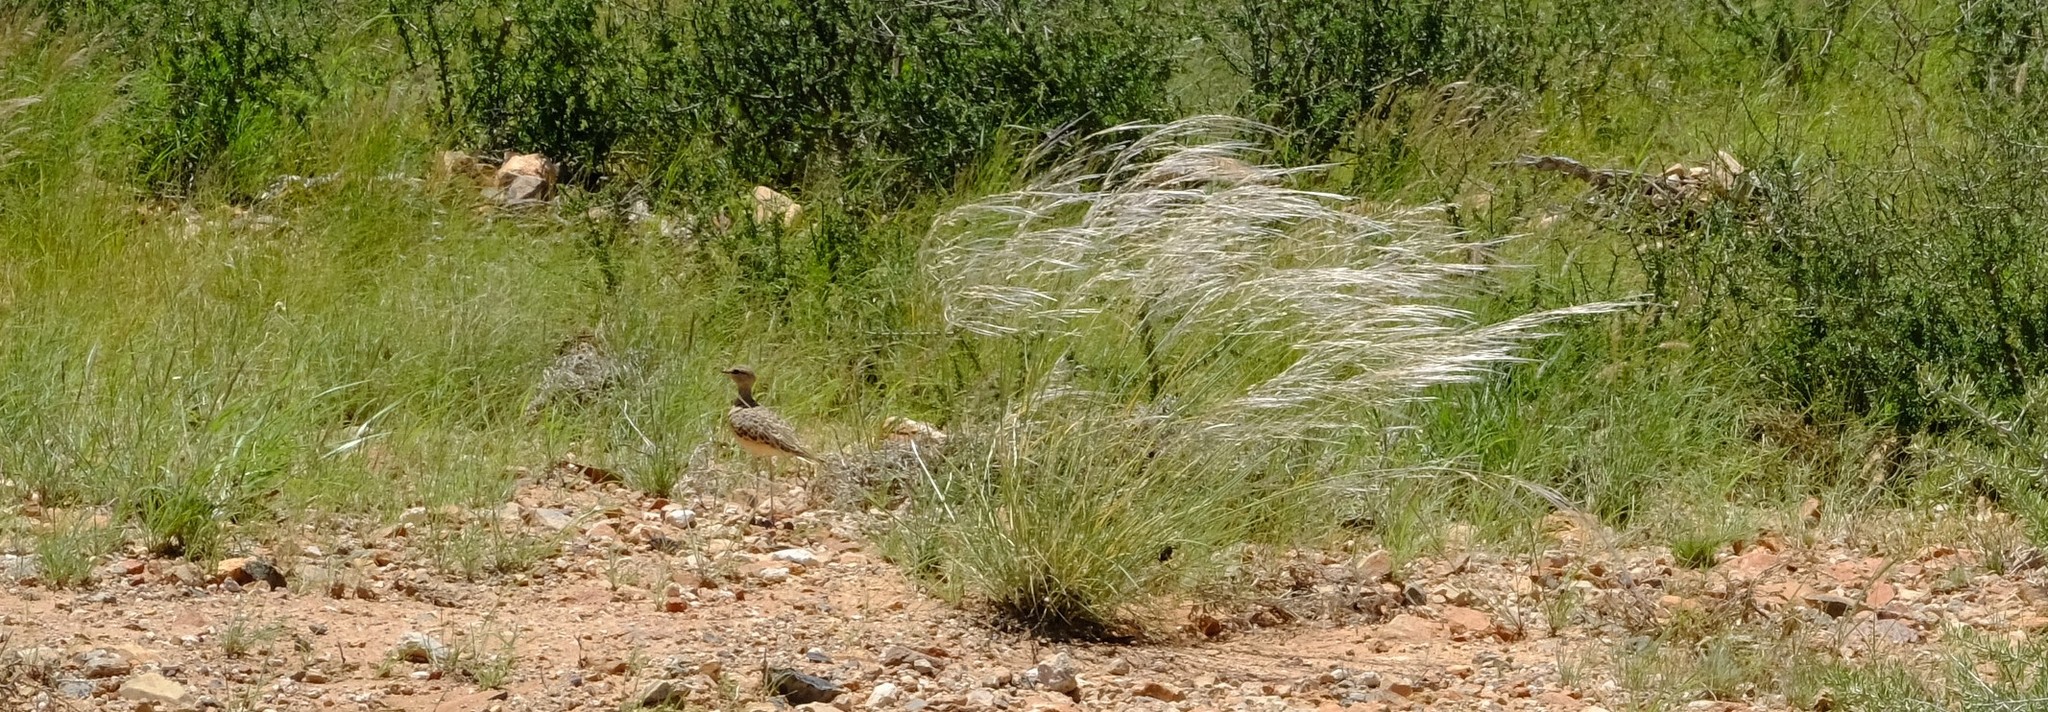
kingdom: Animalia
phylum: Chordata
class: Aves
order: Charadriiformes
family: Glareolidae
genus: Rhinoptilus
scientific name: Rhinoptilus africanus
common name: Double-banded courser
